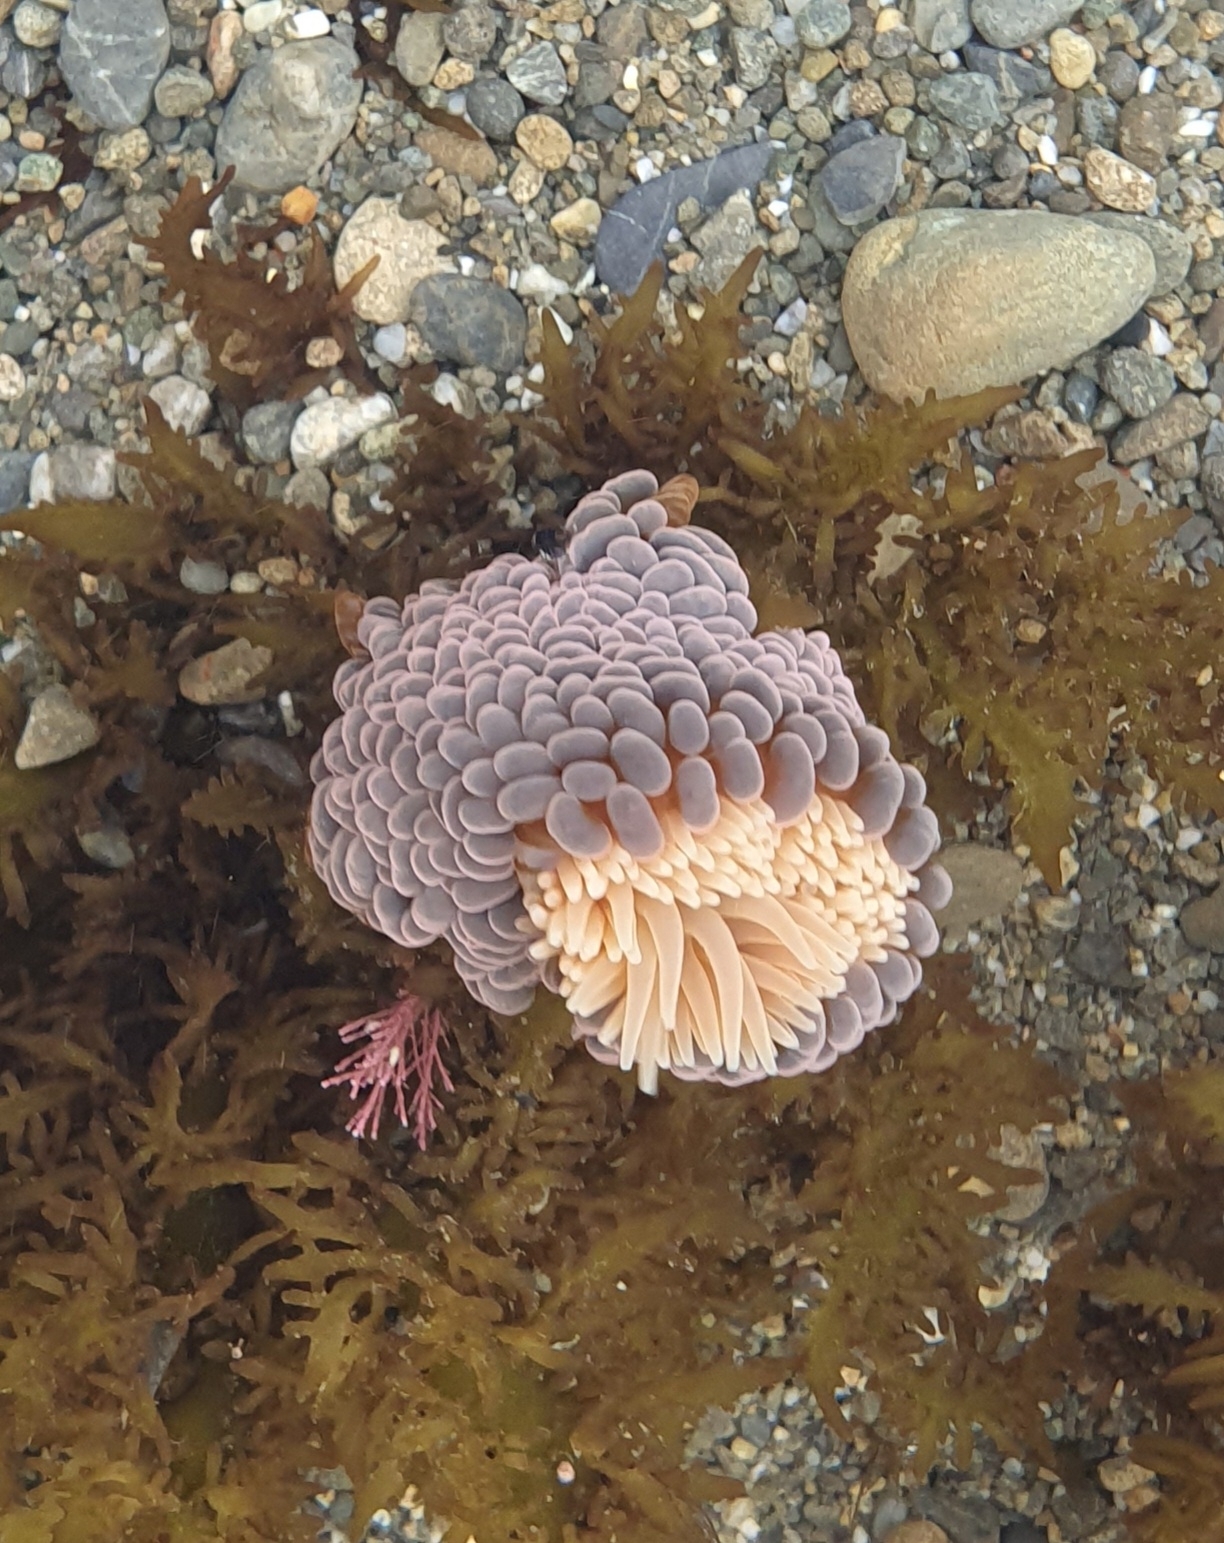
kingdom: Animalia
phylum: Cnidaria
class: Anthozoa
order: Actiniaria
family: Actiniidae
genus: Phlyctenactis
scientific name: Phlyctenactis tuberculosa
